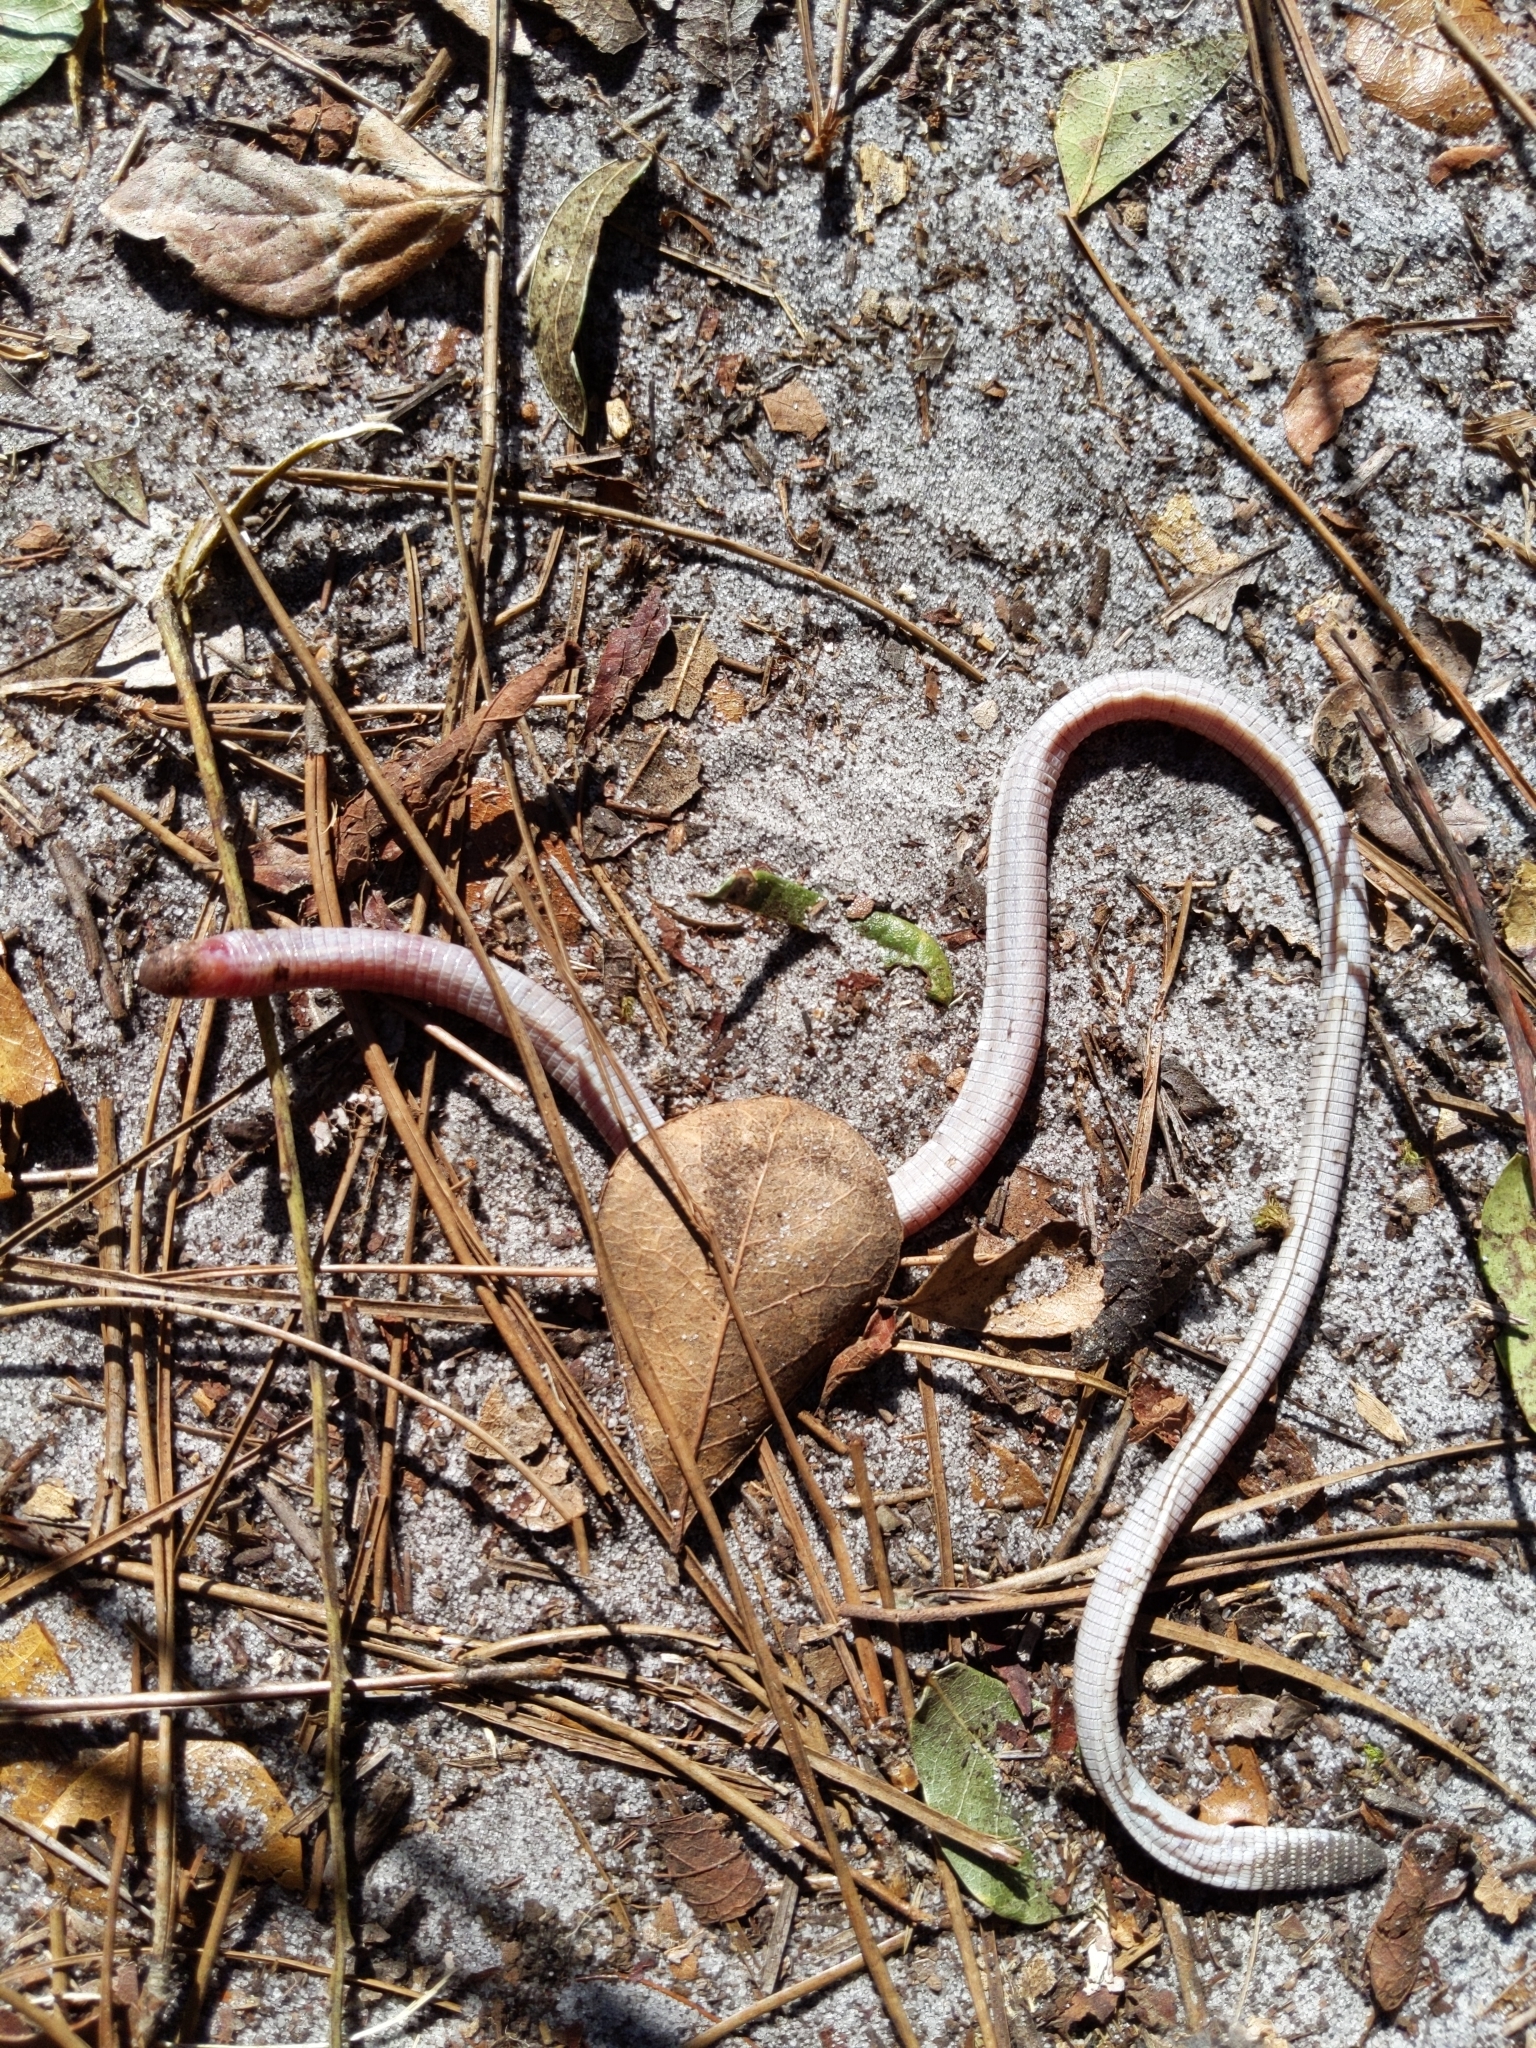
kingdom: Animalia
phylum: Chordata
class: Squamata
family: Rhineuridae
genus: Rhineura
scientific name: Rhineura floridana
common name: Florida worm lizard
